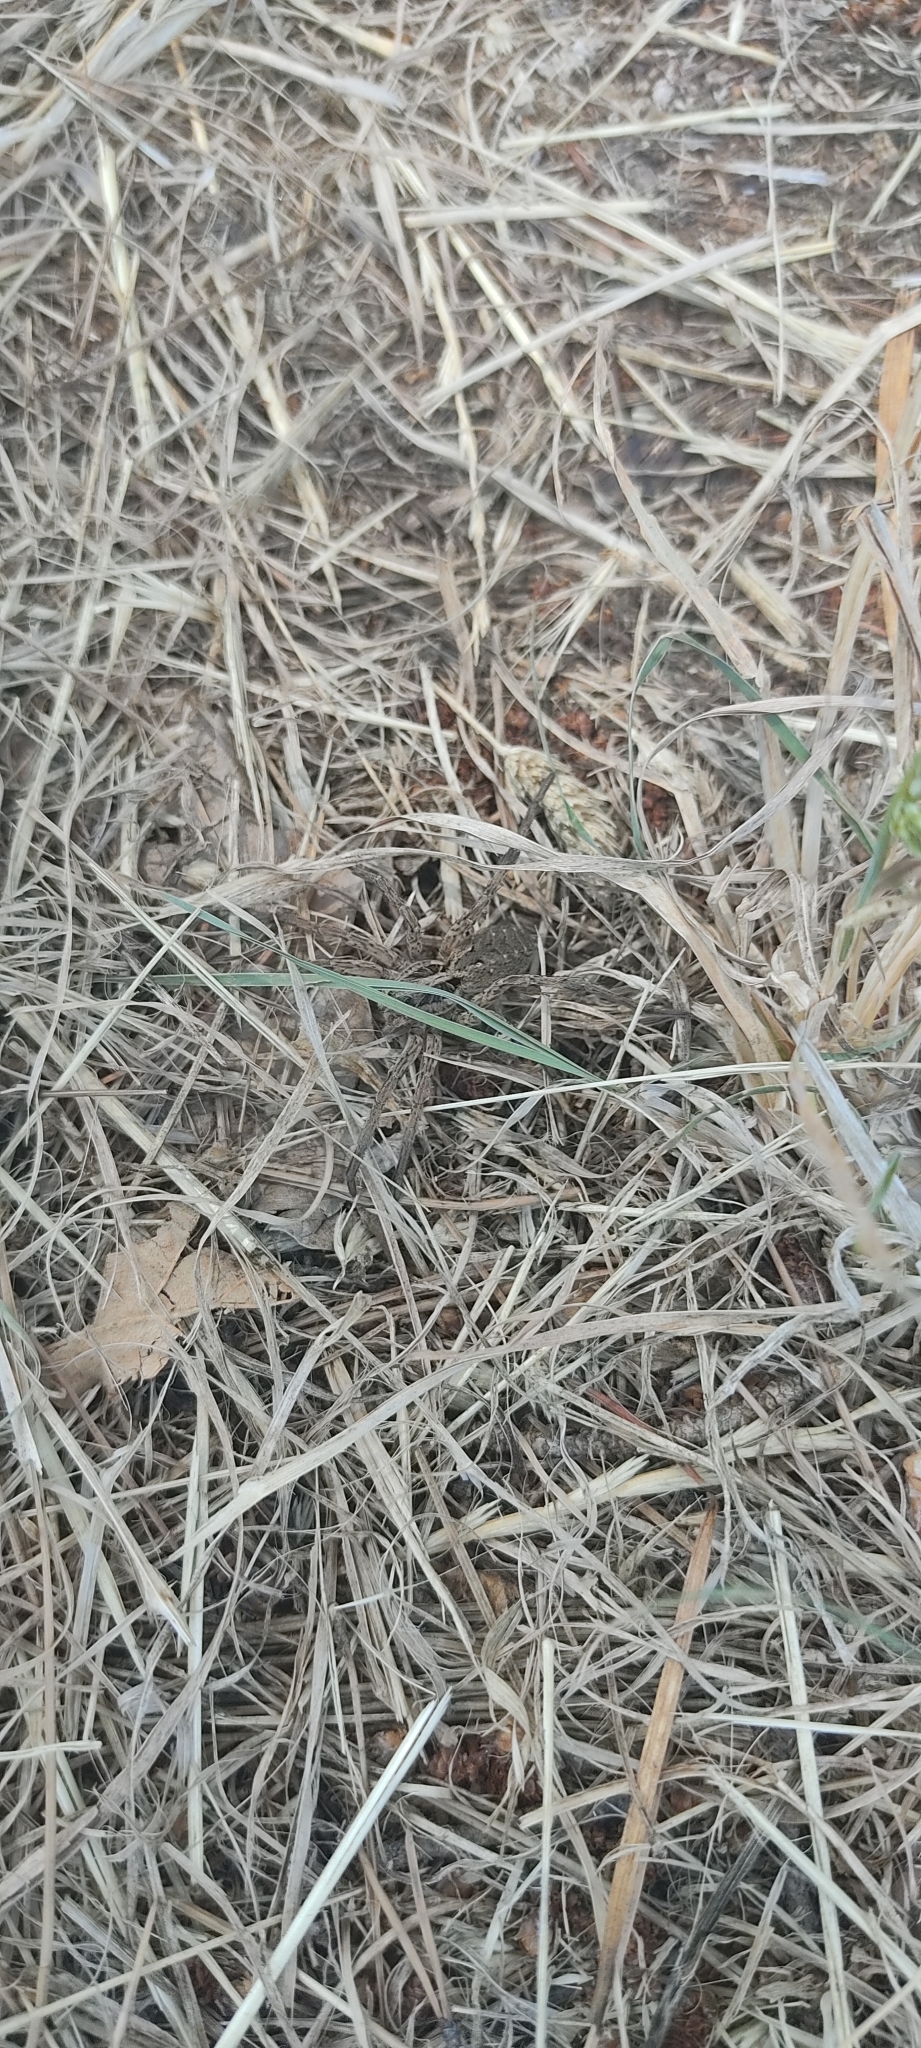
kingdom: Animalia
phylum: Arthropoda
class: Arachnida
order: Araneae
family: Lycosidae
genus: Hogna
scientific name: Hogna radiata
